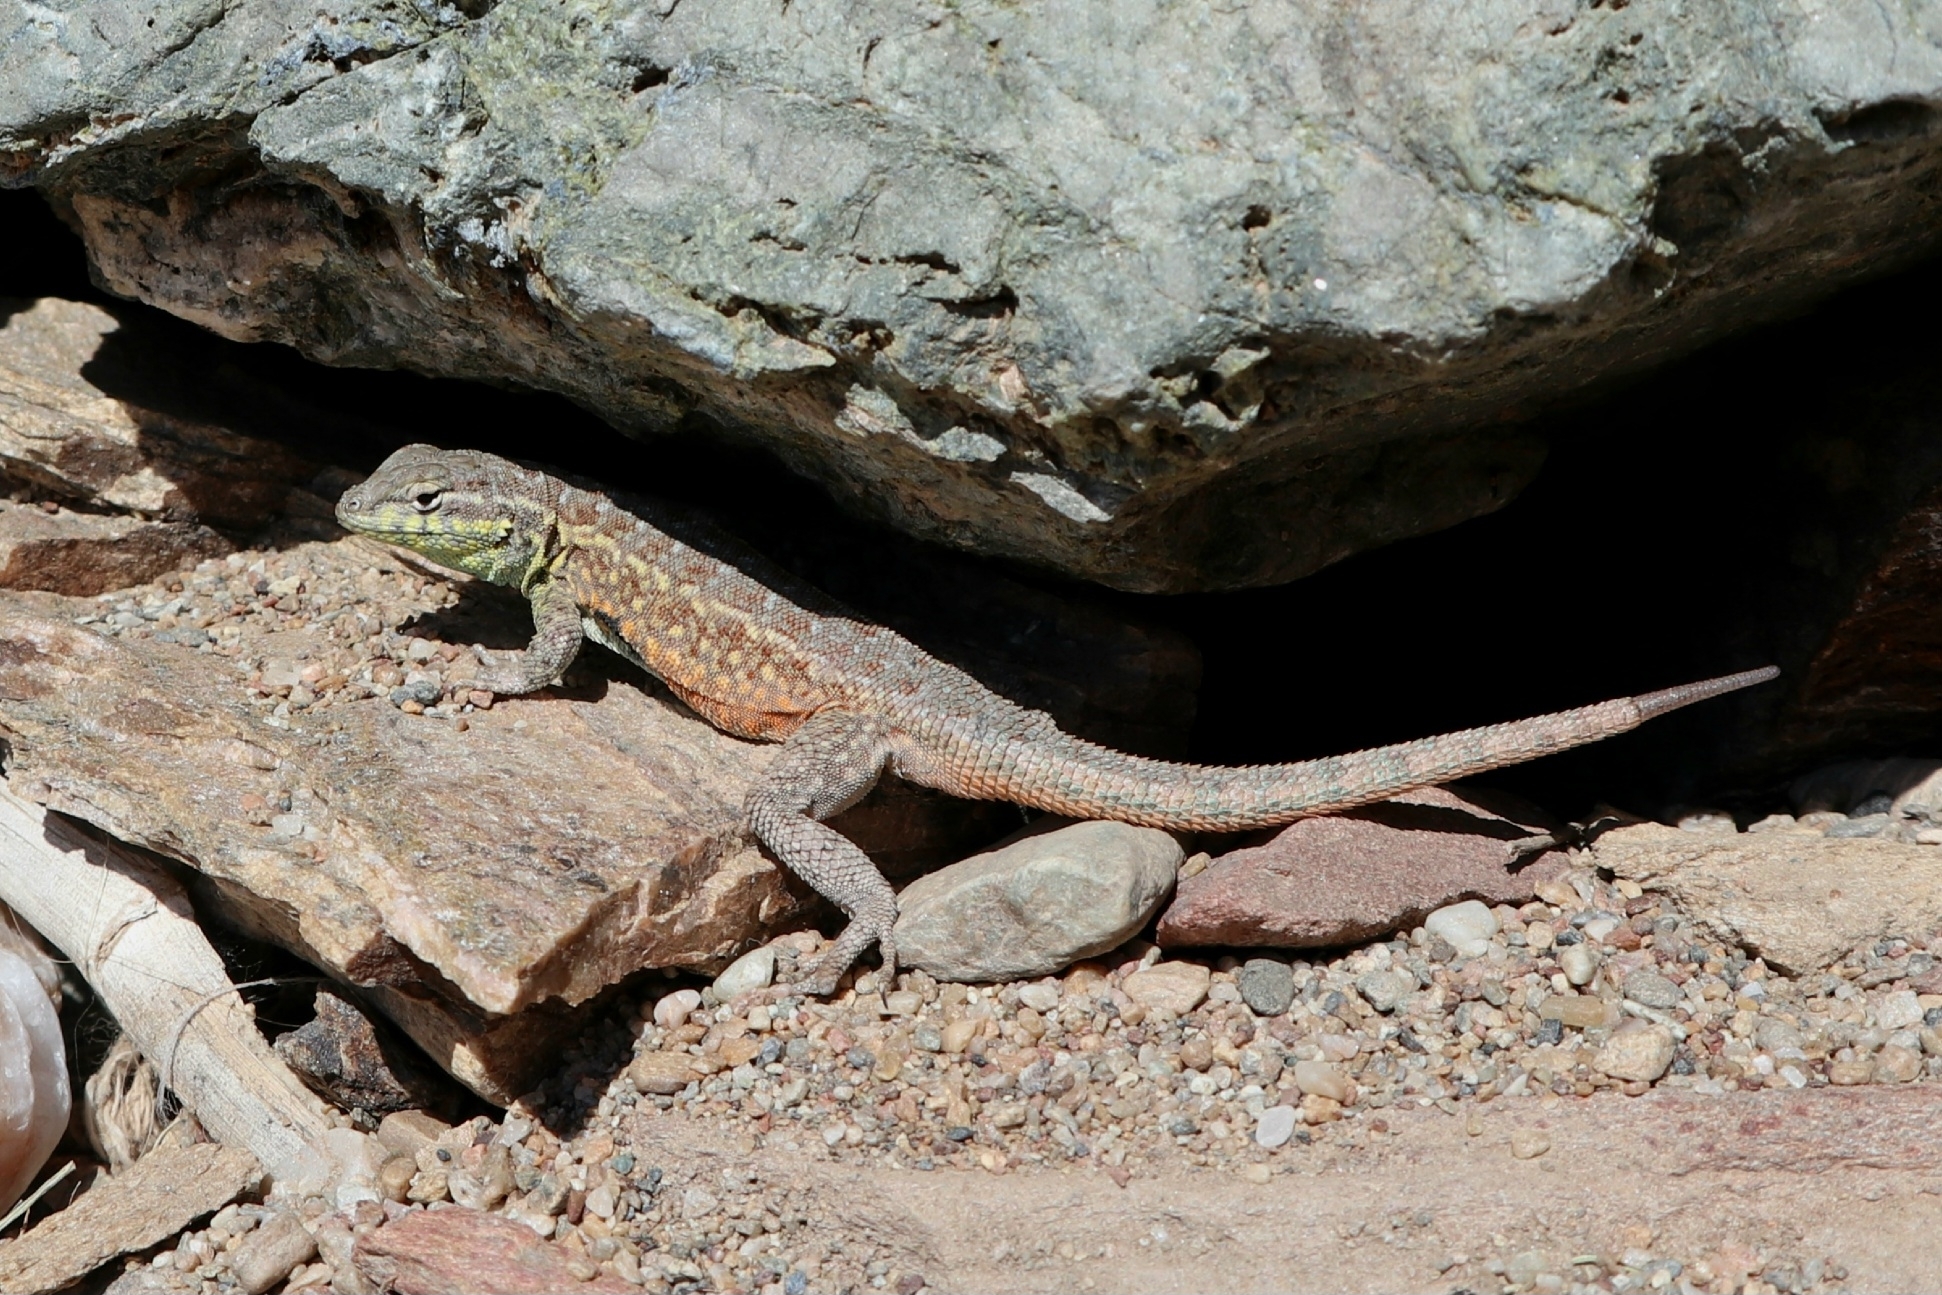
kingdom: Animalia
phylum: Chordata
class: Squamata
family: Phrynosomatidae
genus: Uta
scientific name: Uta stansburiana
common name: Side-blotched lizard
